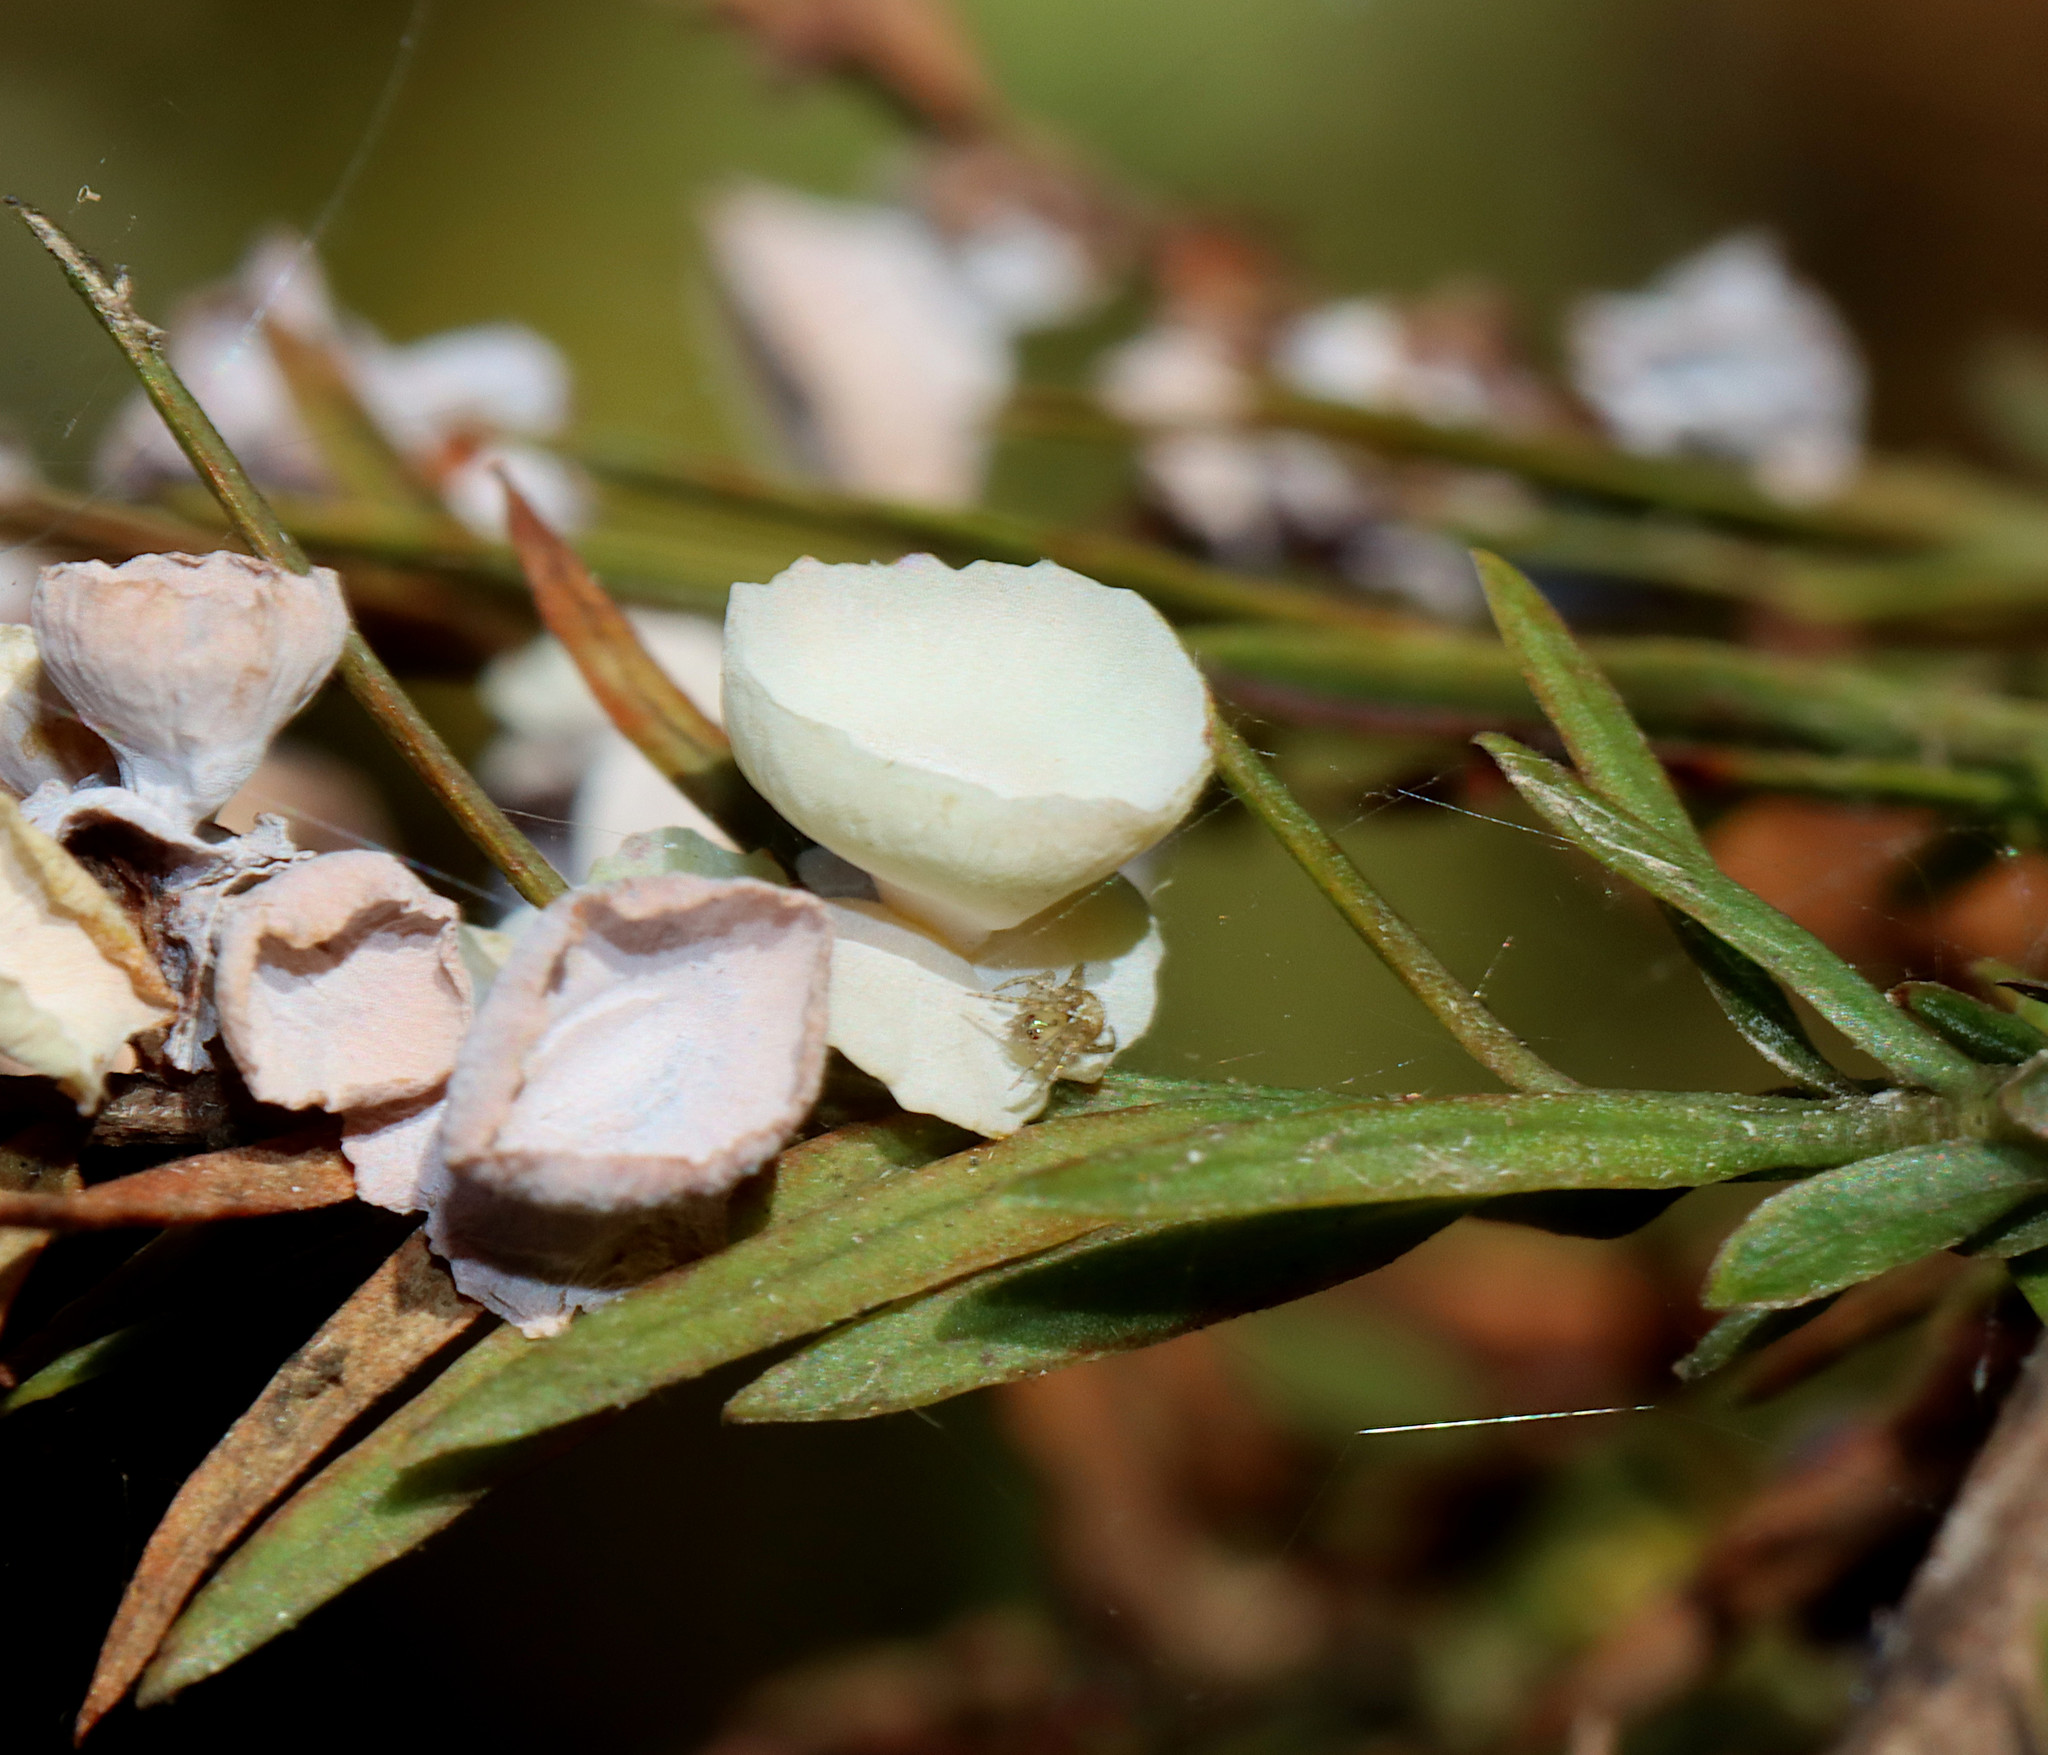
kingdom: Animalia
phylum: Arthropoda
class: Insecta
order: Diptera
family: Cecidomyiidae
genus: Taxodiomyia
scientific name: Taxodiomyia cupressi
